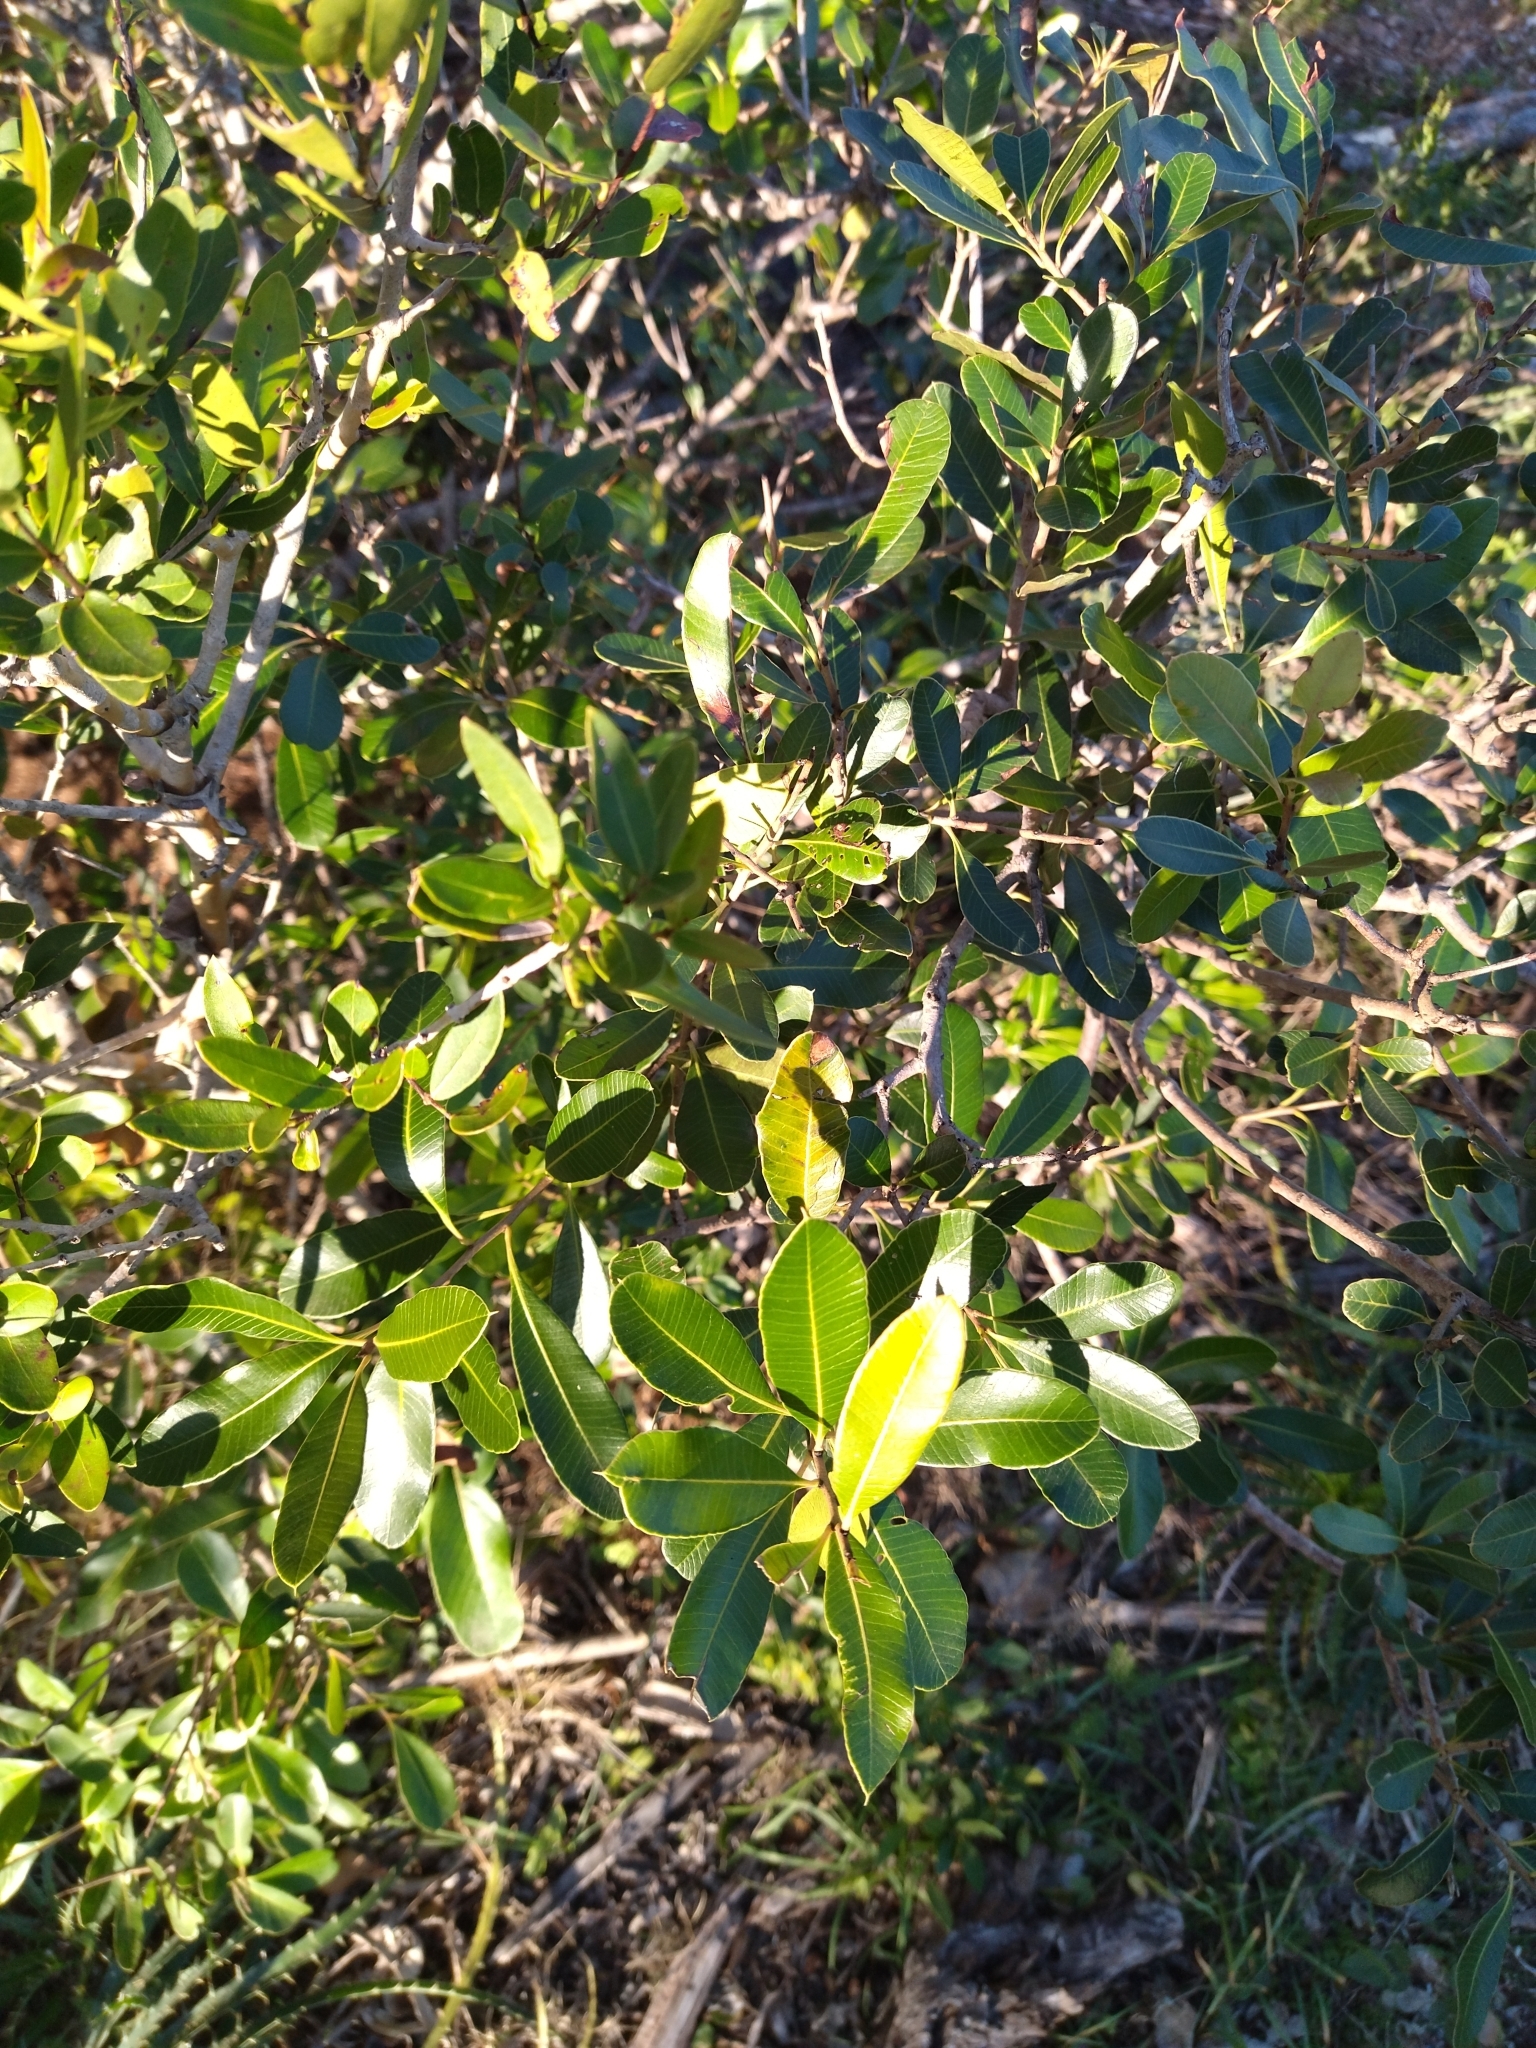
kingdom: Plantae
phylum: Tracheophyta
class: Magnoliopsida
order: Sapindales
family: Anacardiaceae
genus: Lithraea
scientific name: Lithraea brasiliensis
